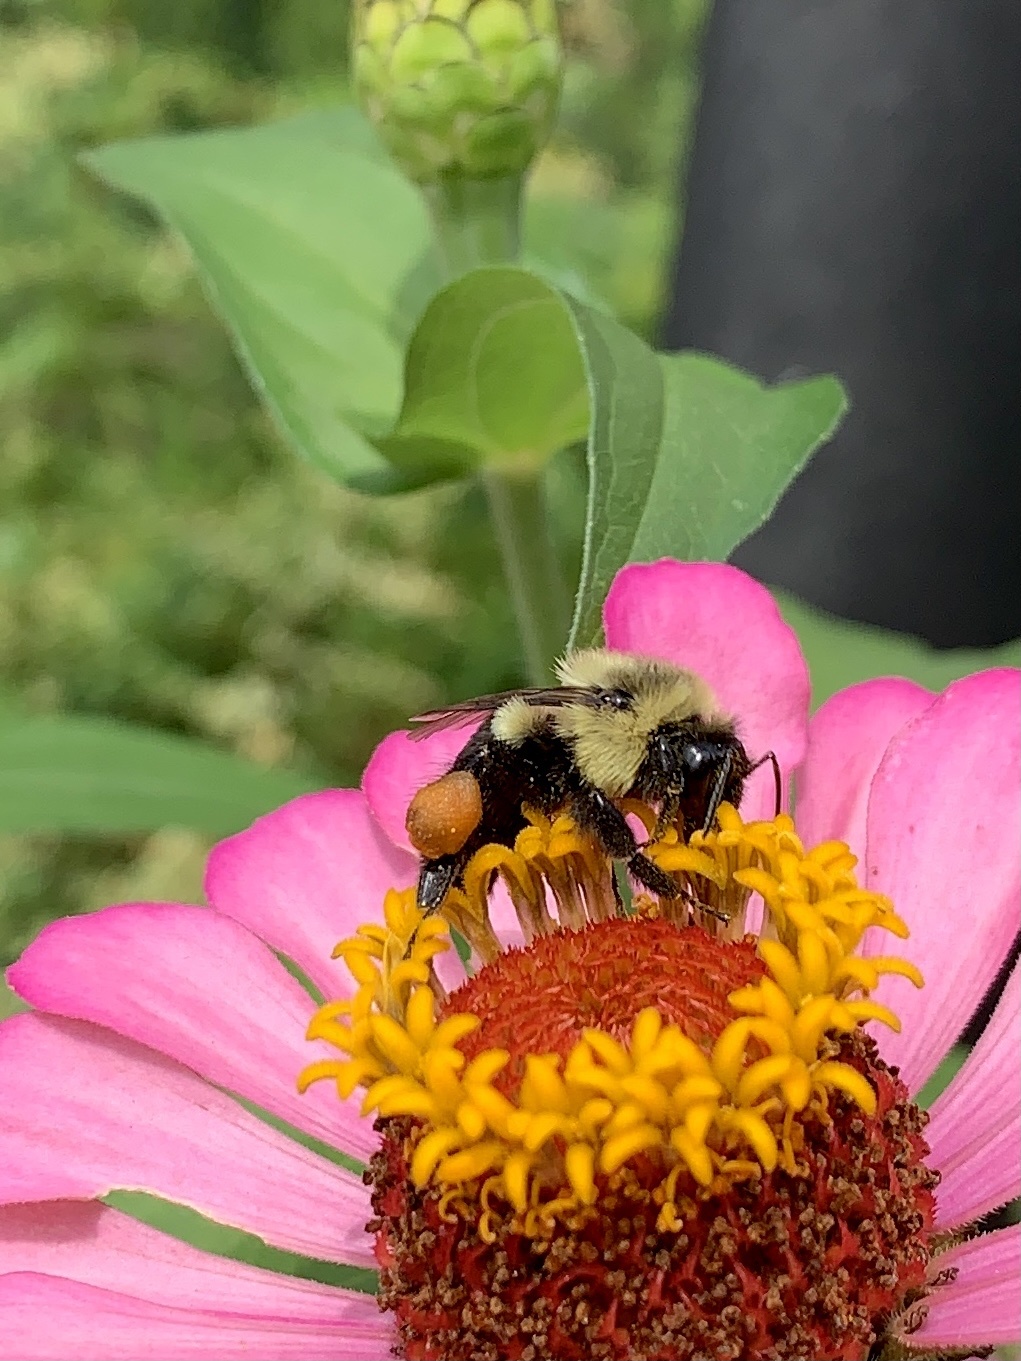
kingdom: Animalia
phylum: Arthropoda
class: Insecta
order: Hymenoptera
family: Apidae
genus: Bombus
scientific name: Bombus impatiens
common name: Common eastern bumble bee
